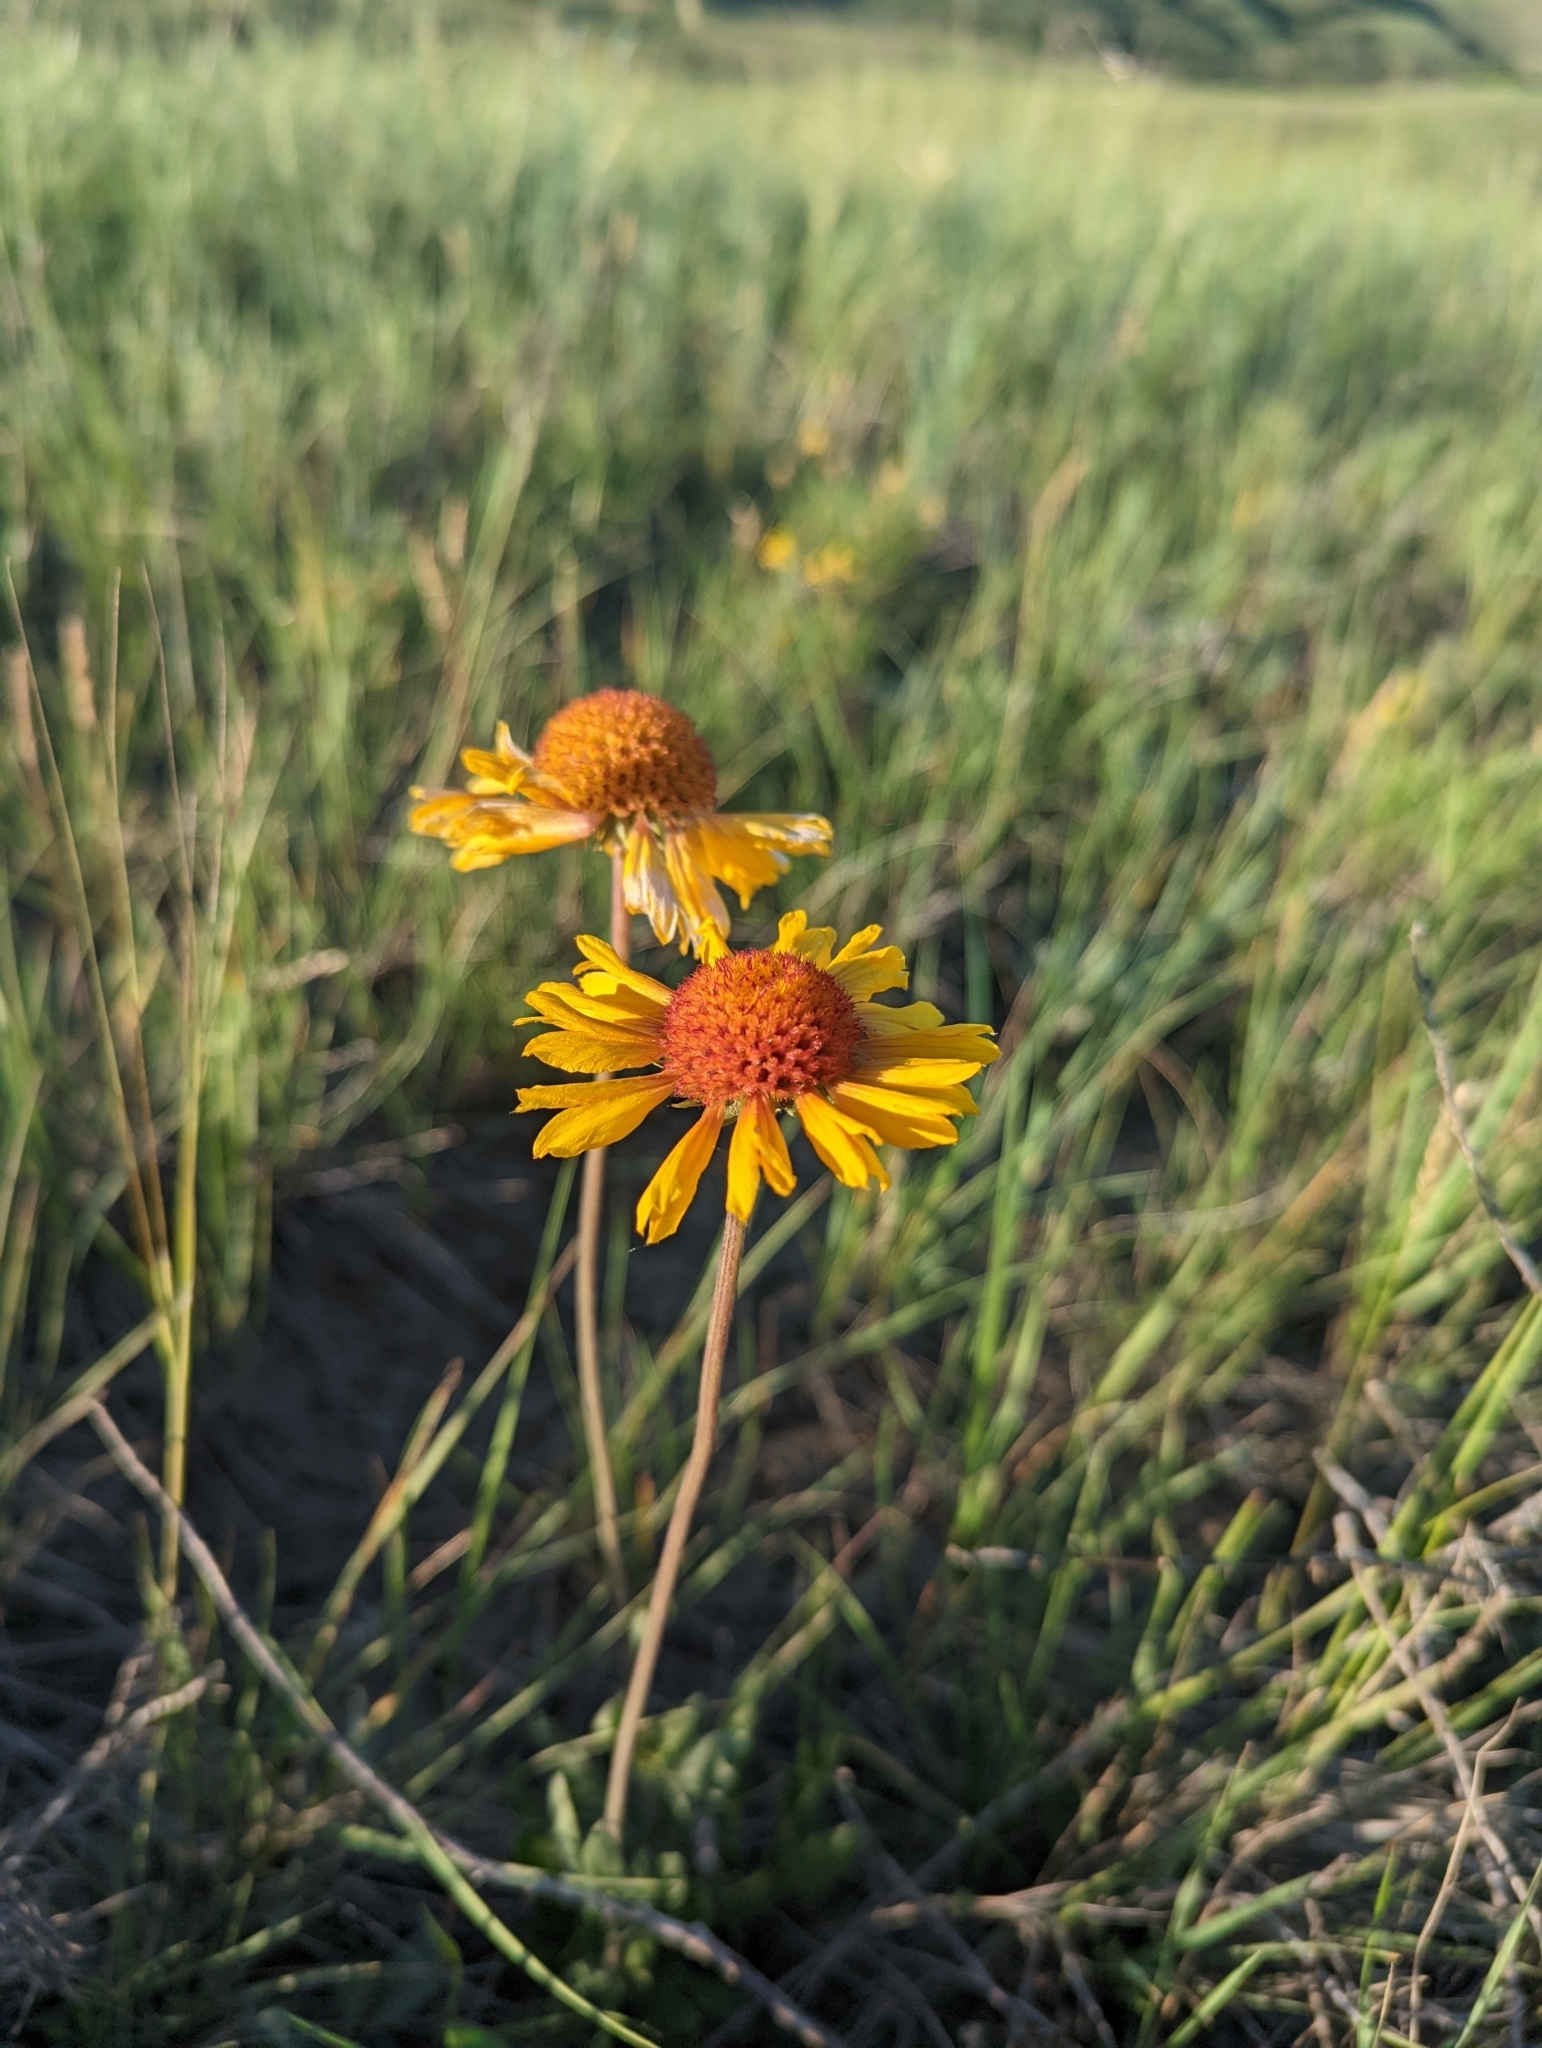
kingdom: Plantae
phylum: Tracheophyta
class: Magnoliopsida
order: Asterales
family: Asteraceae
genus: Gaillardia
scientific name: Gaillardia aristata
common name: Blanket-flower
